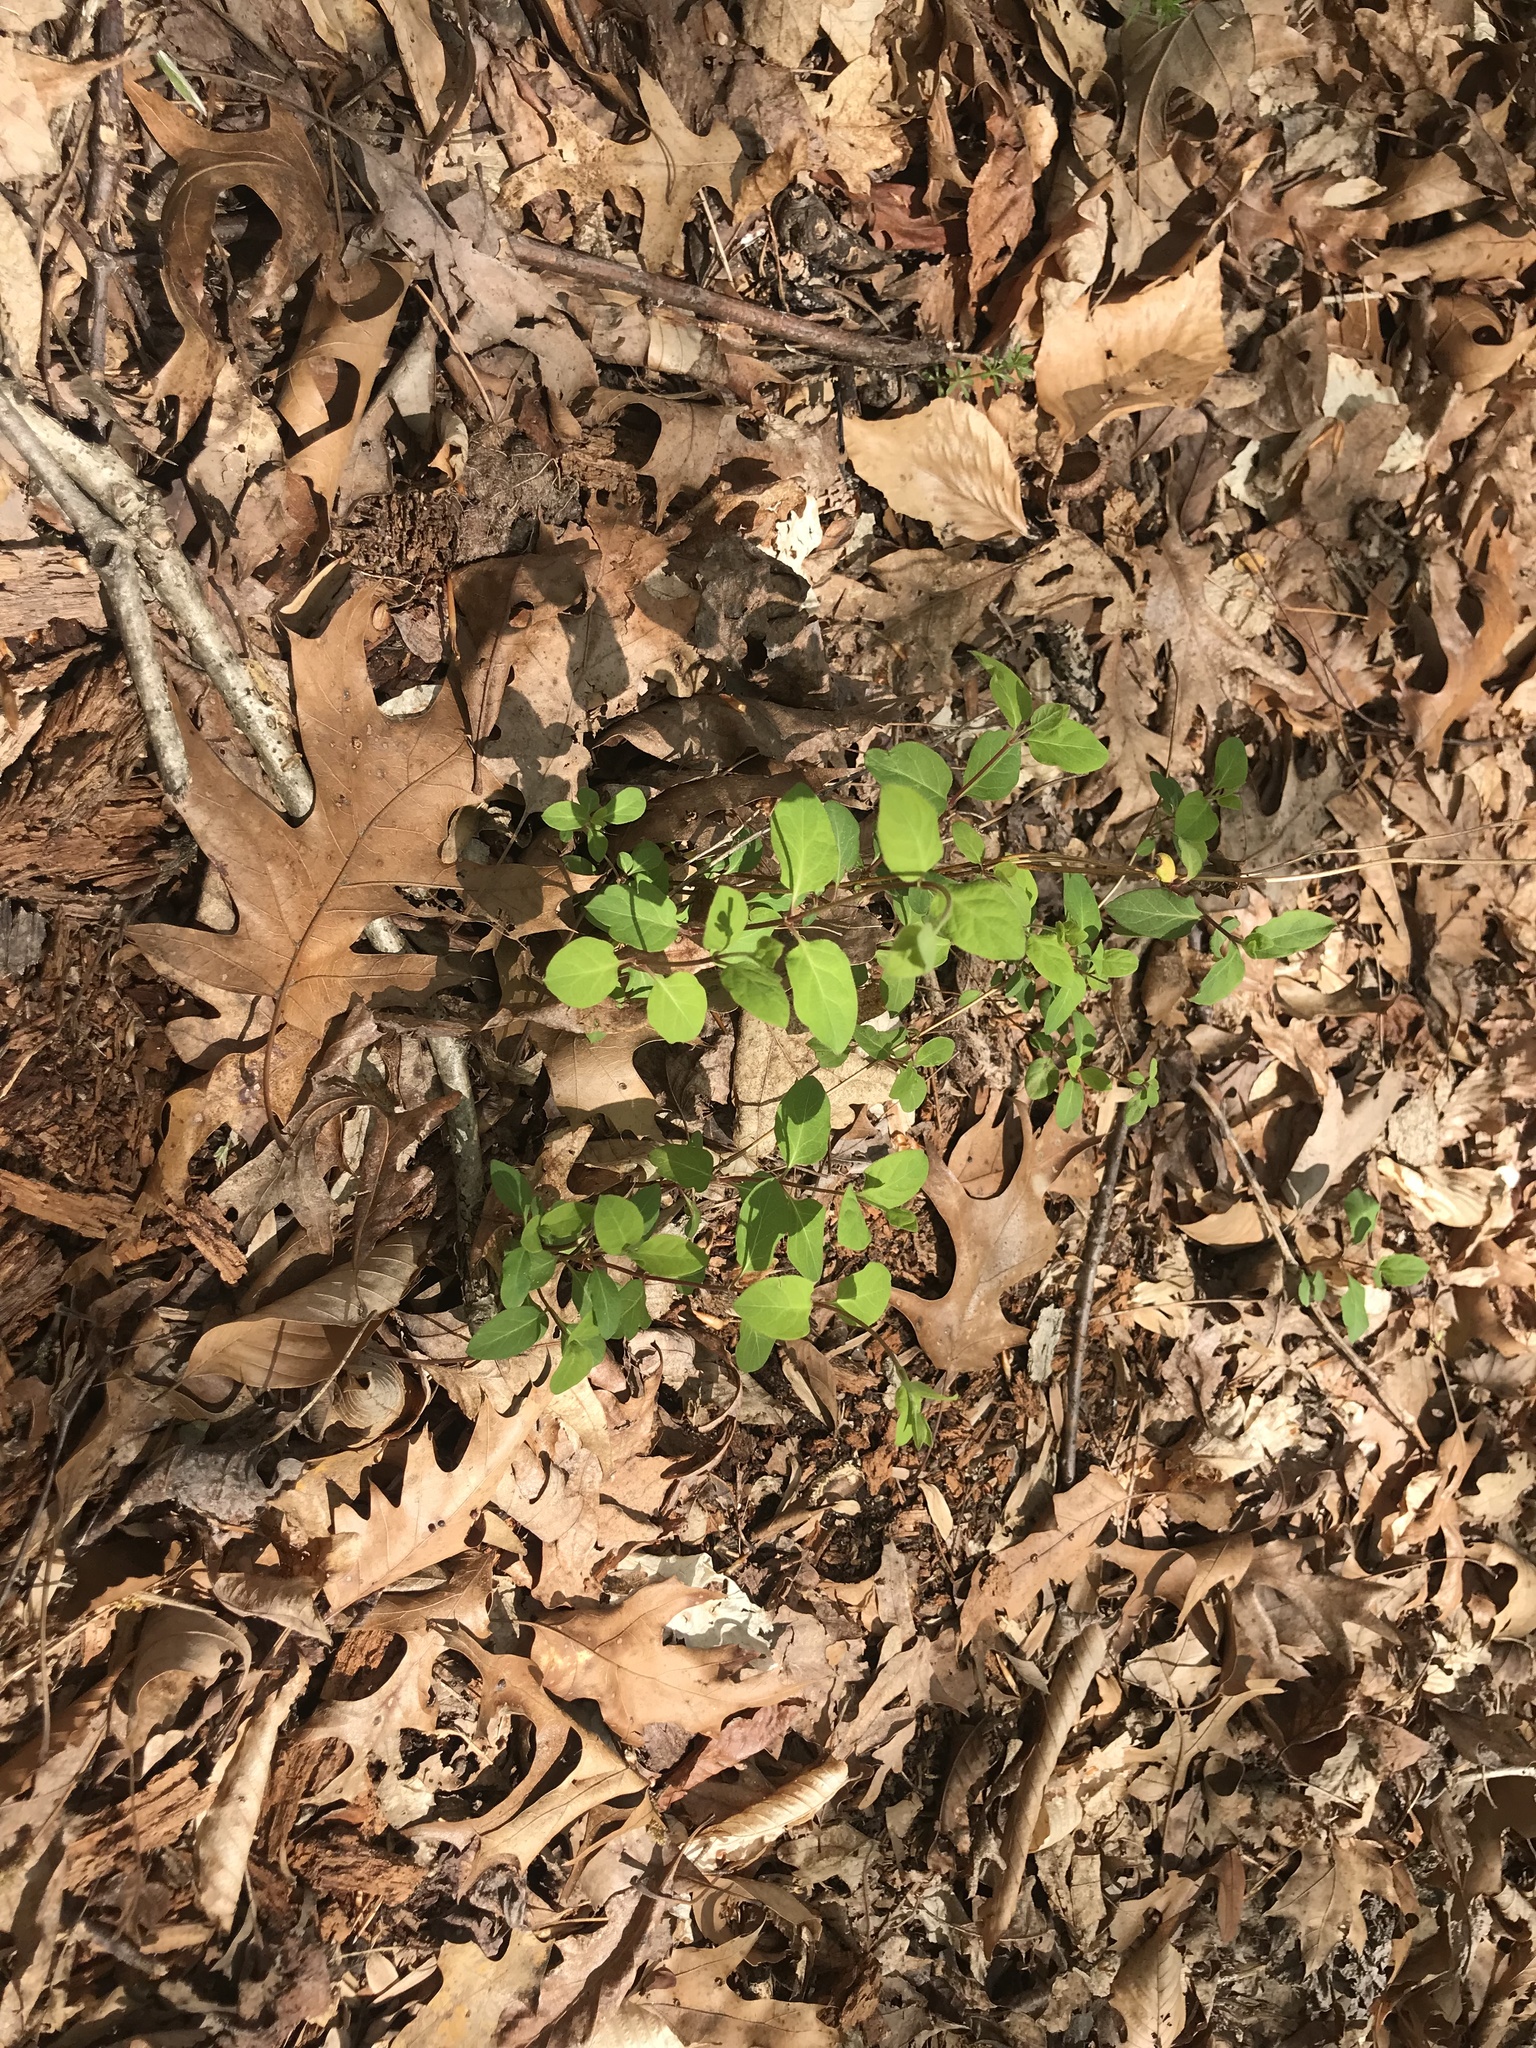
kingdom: Plantae
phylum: Tracheophyta
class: Magnoliopsida
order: Dipsacales
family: Caprifoliaceae
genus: Lonicera
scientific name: Lonicera japonica
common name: Japanese honeysuckle
